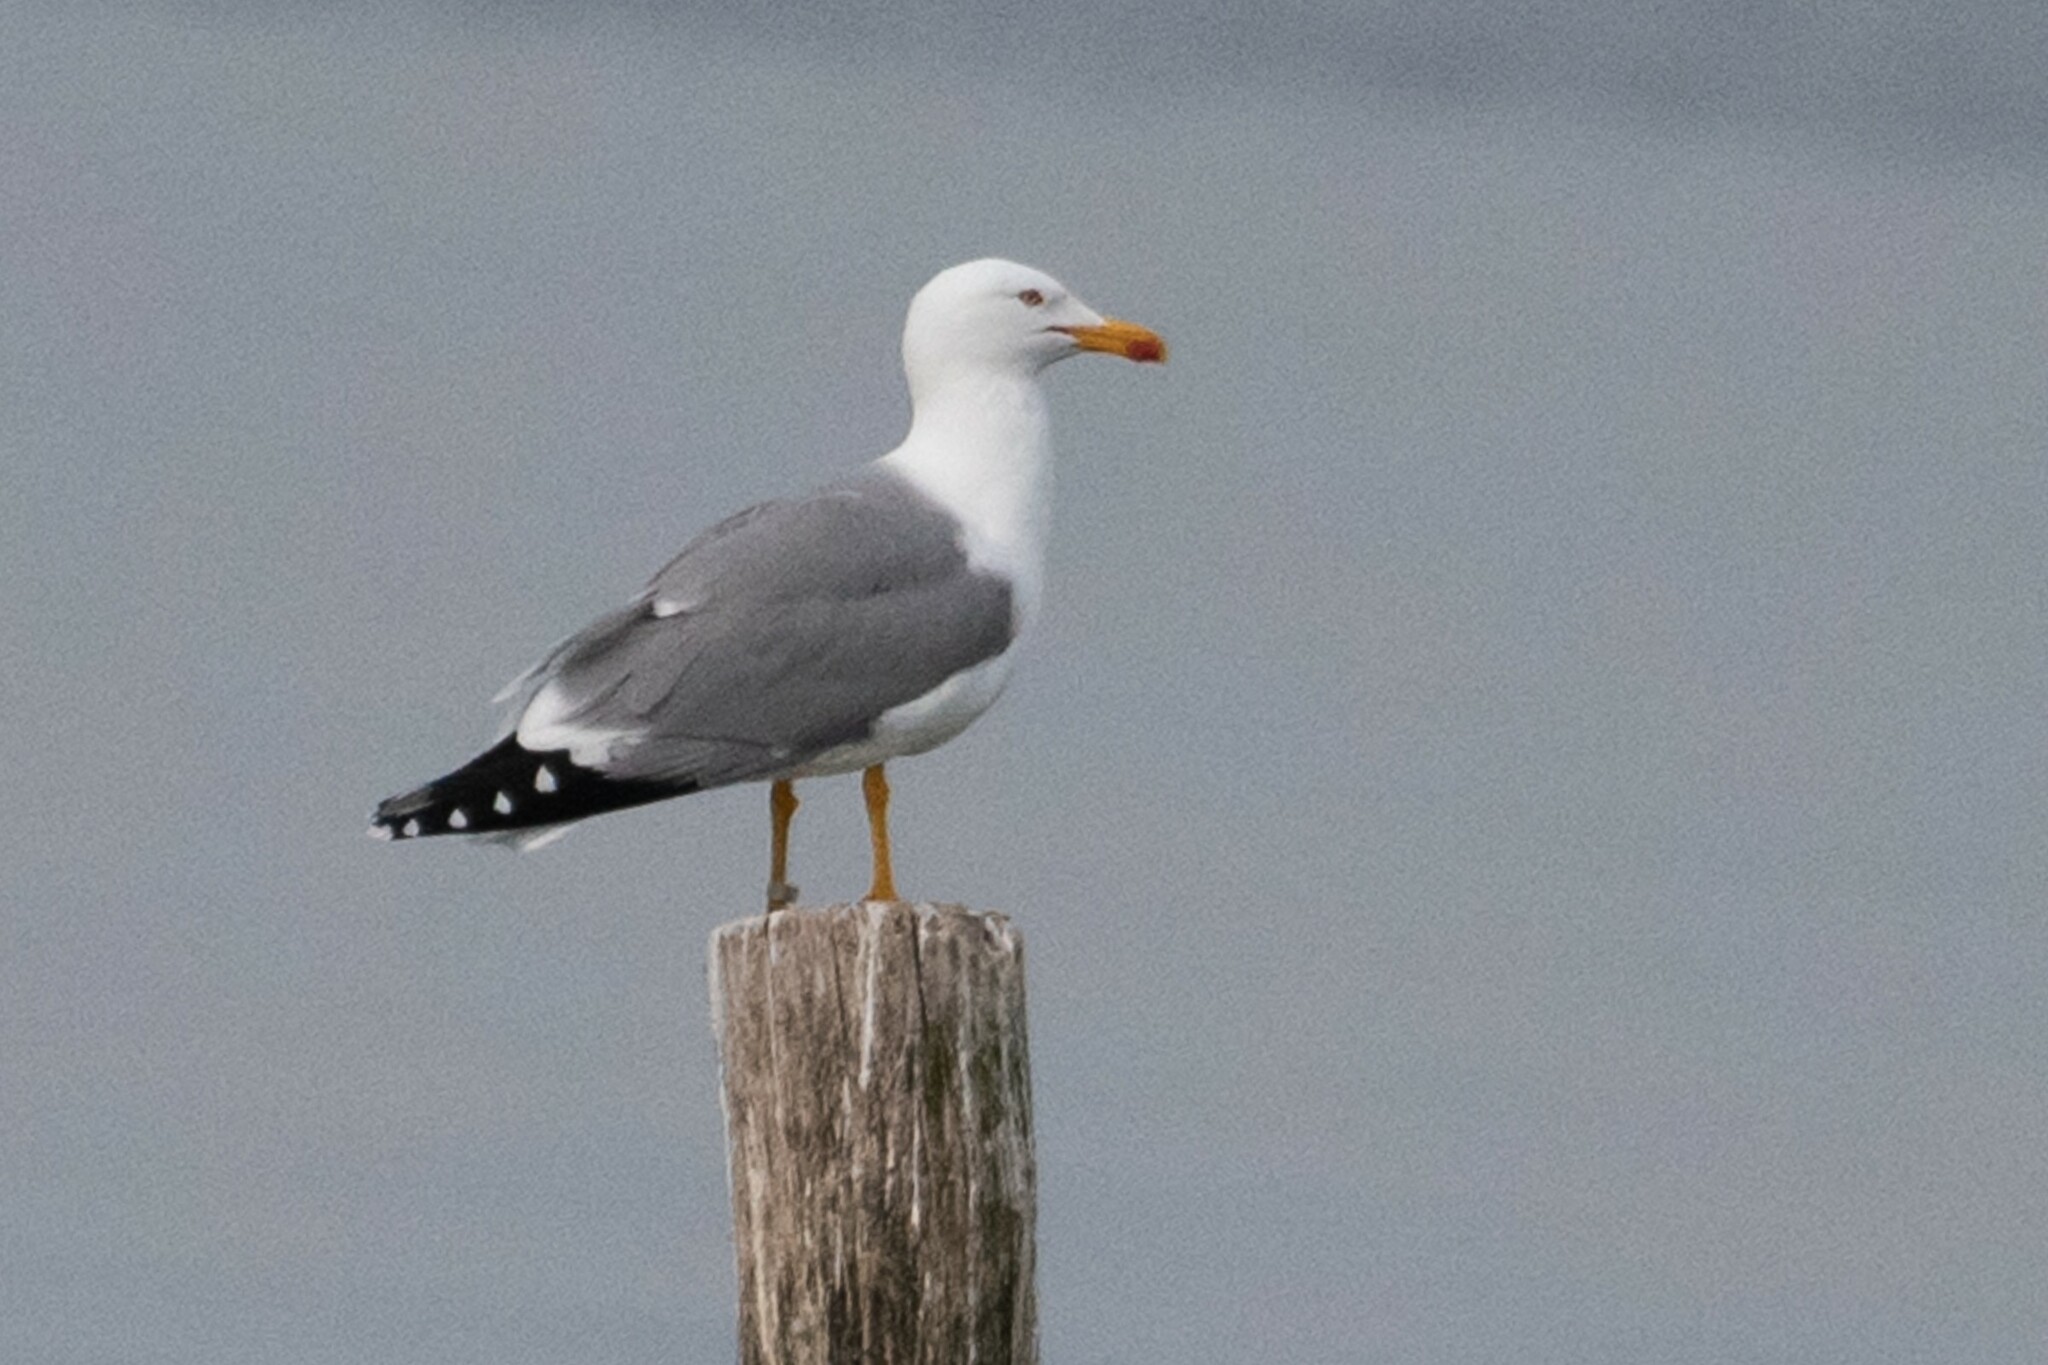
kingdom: Animalia
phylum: Chordata
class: Aves
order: Charadriiformes
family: Laridae
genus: Larus
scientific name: Larus michahellis
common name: Yellow-legged gull
